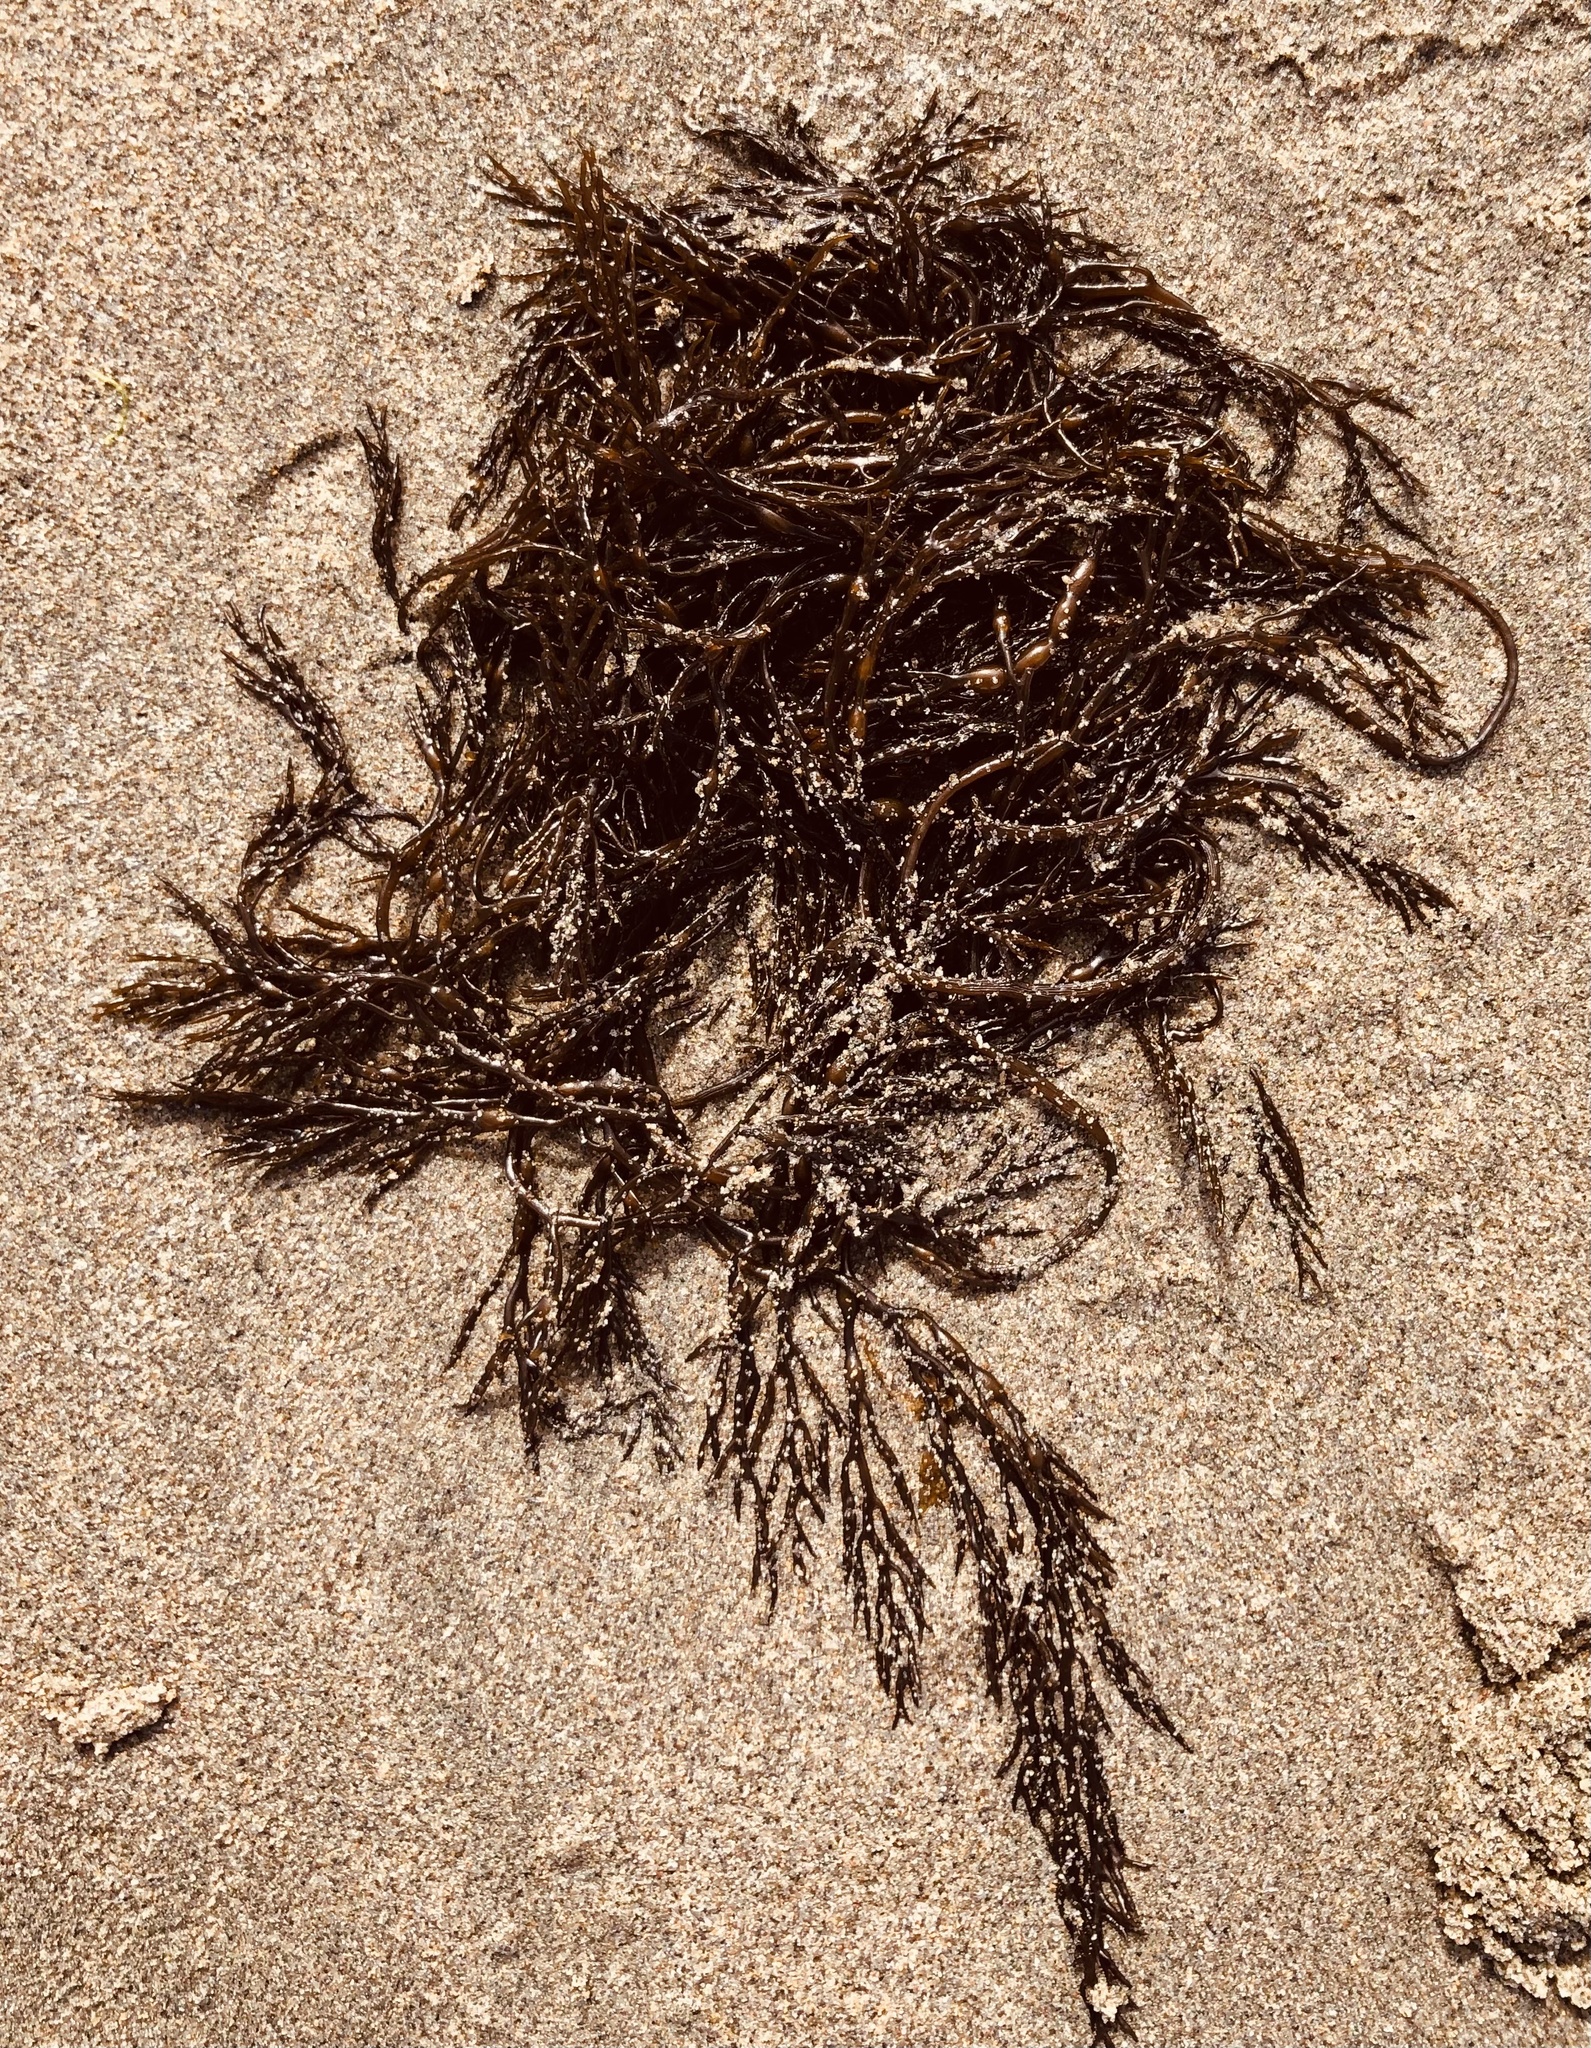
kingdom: Chromista
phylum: Ochrophyta
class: Phaeophyceae
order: Fucales
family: Sargassaceae
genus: Stephanocystis
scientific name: Stephanocystis
